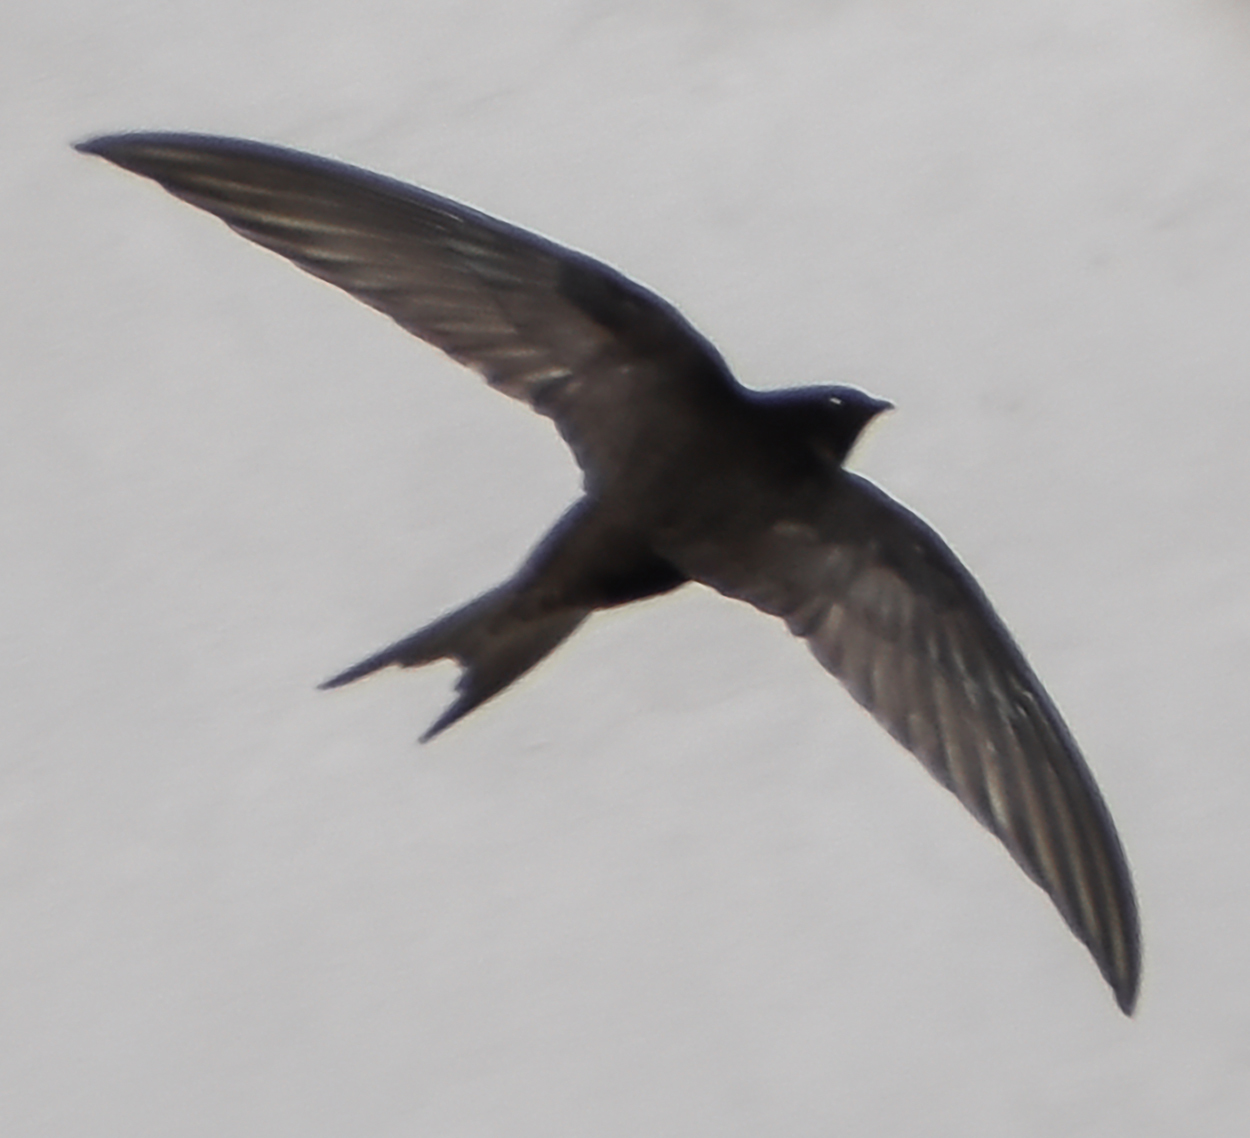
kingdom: Animalia
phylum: Chordata
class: Aves
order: Apodiformes
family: Apodidae
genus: Apus
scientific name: Apus apus
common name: Common swift
